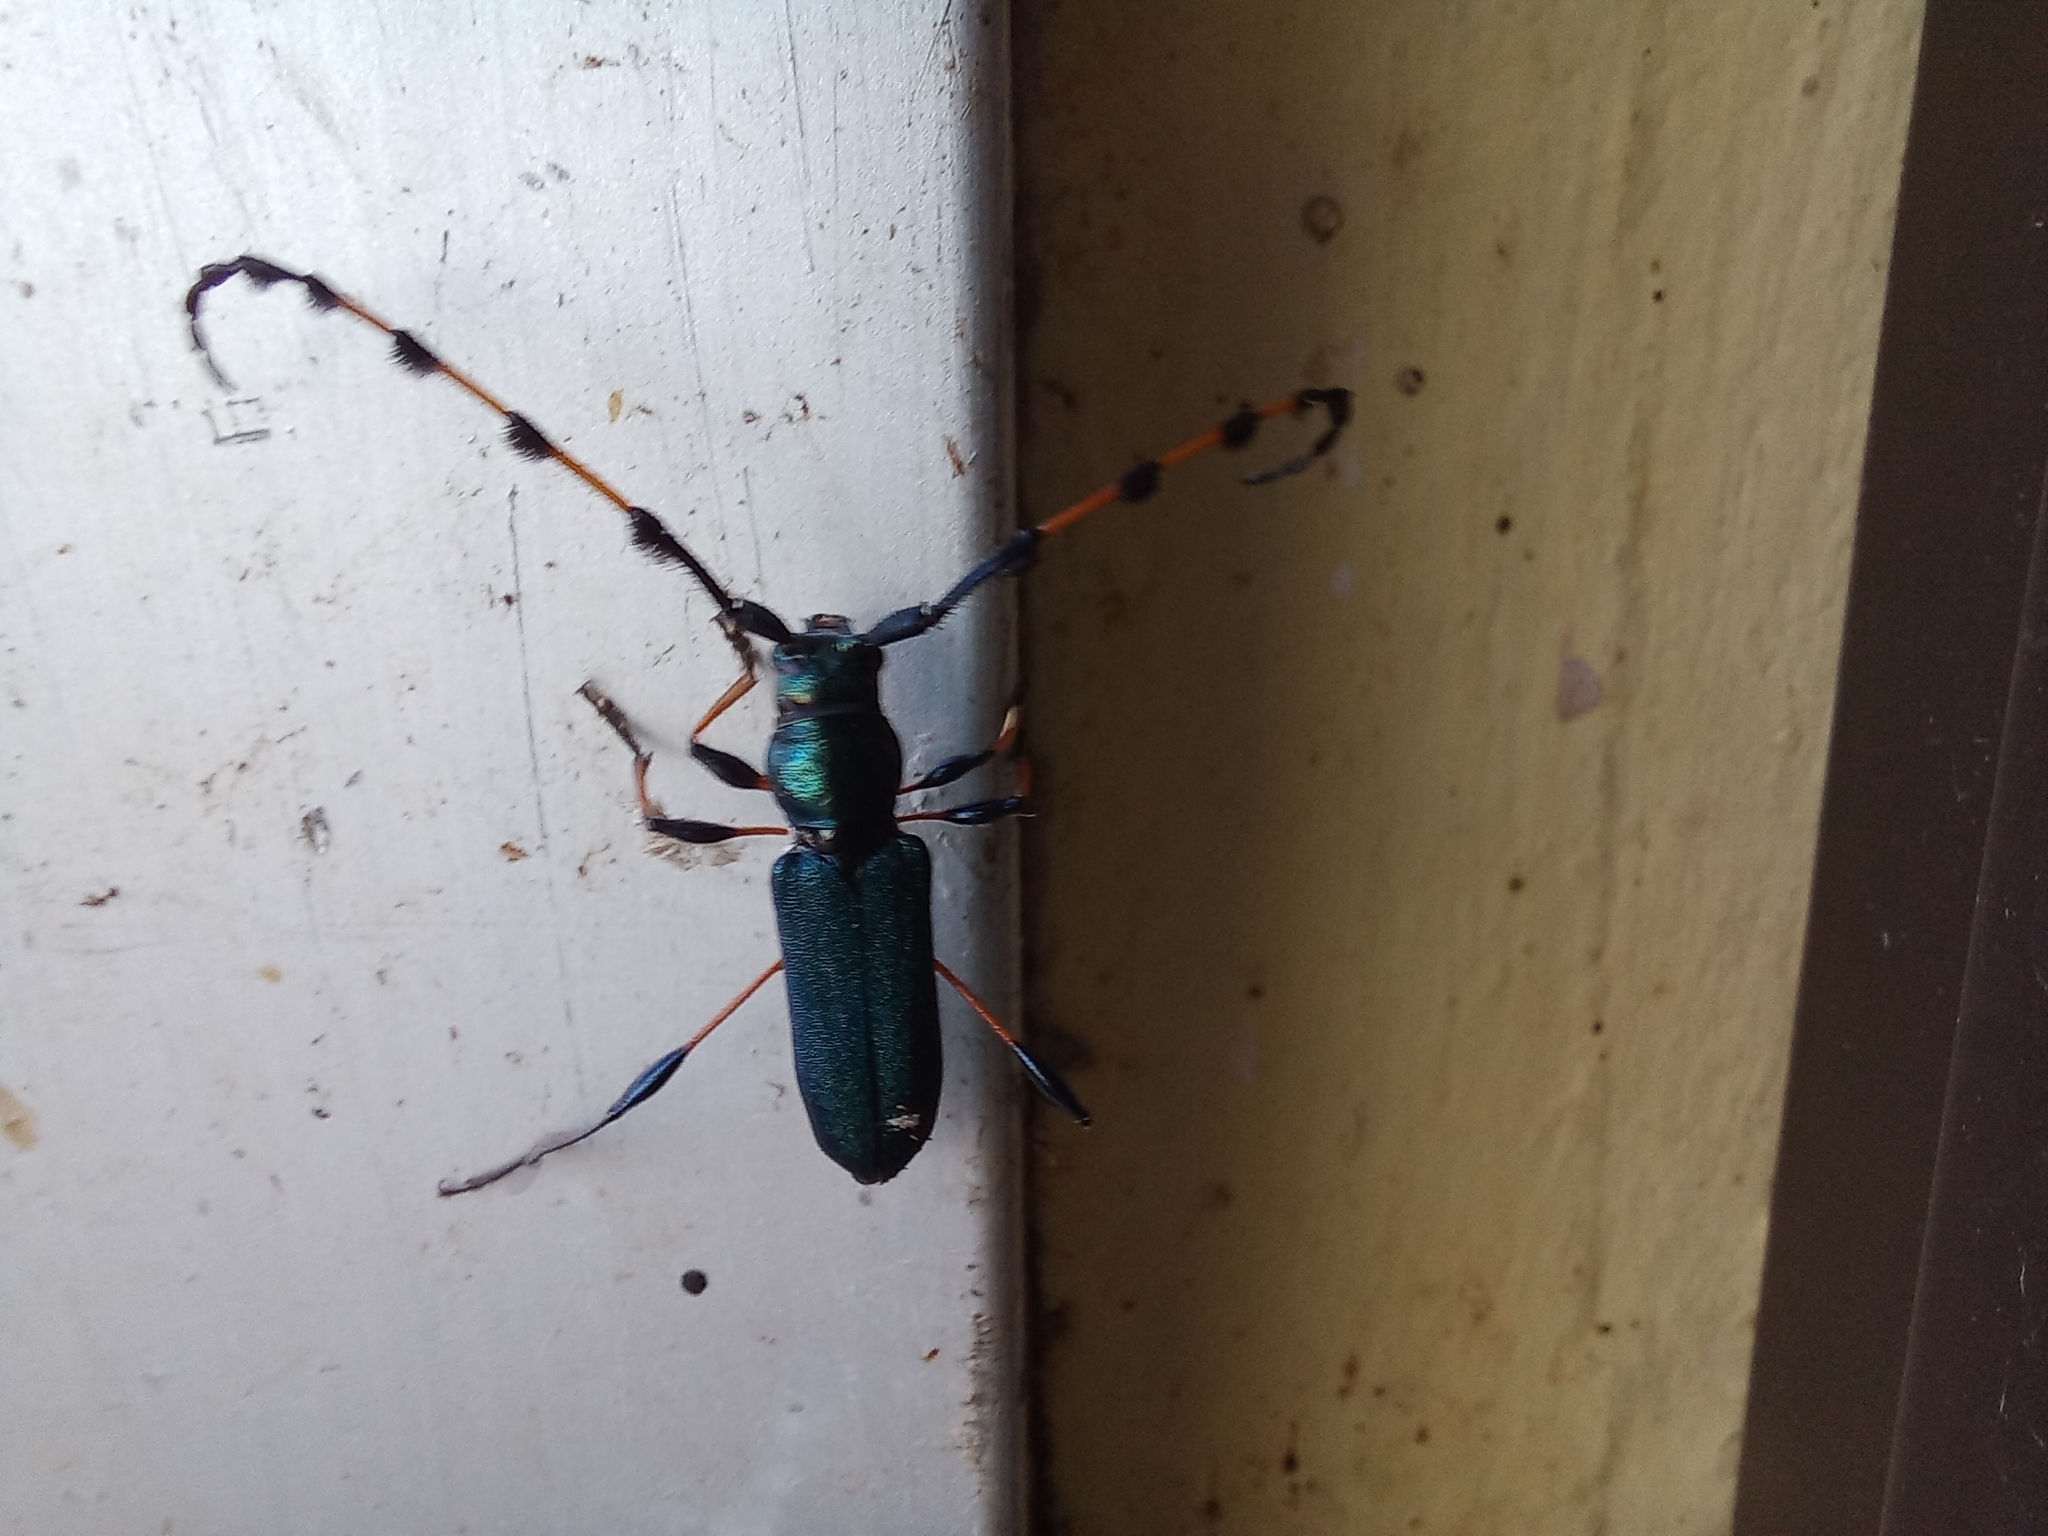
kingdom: Animalia
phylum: Arthropoda
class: Insecta
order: Coleoptera
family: Cerambycidae
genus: Evgenius
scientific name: Evgenius plumatus
